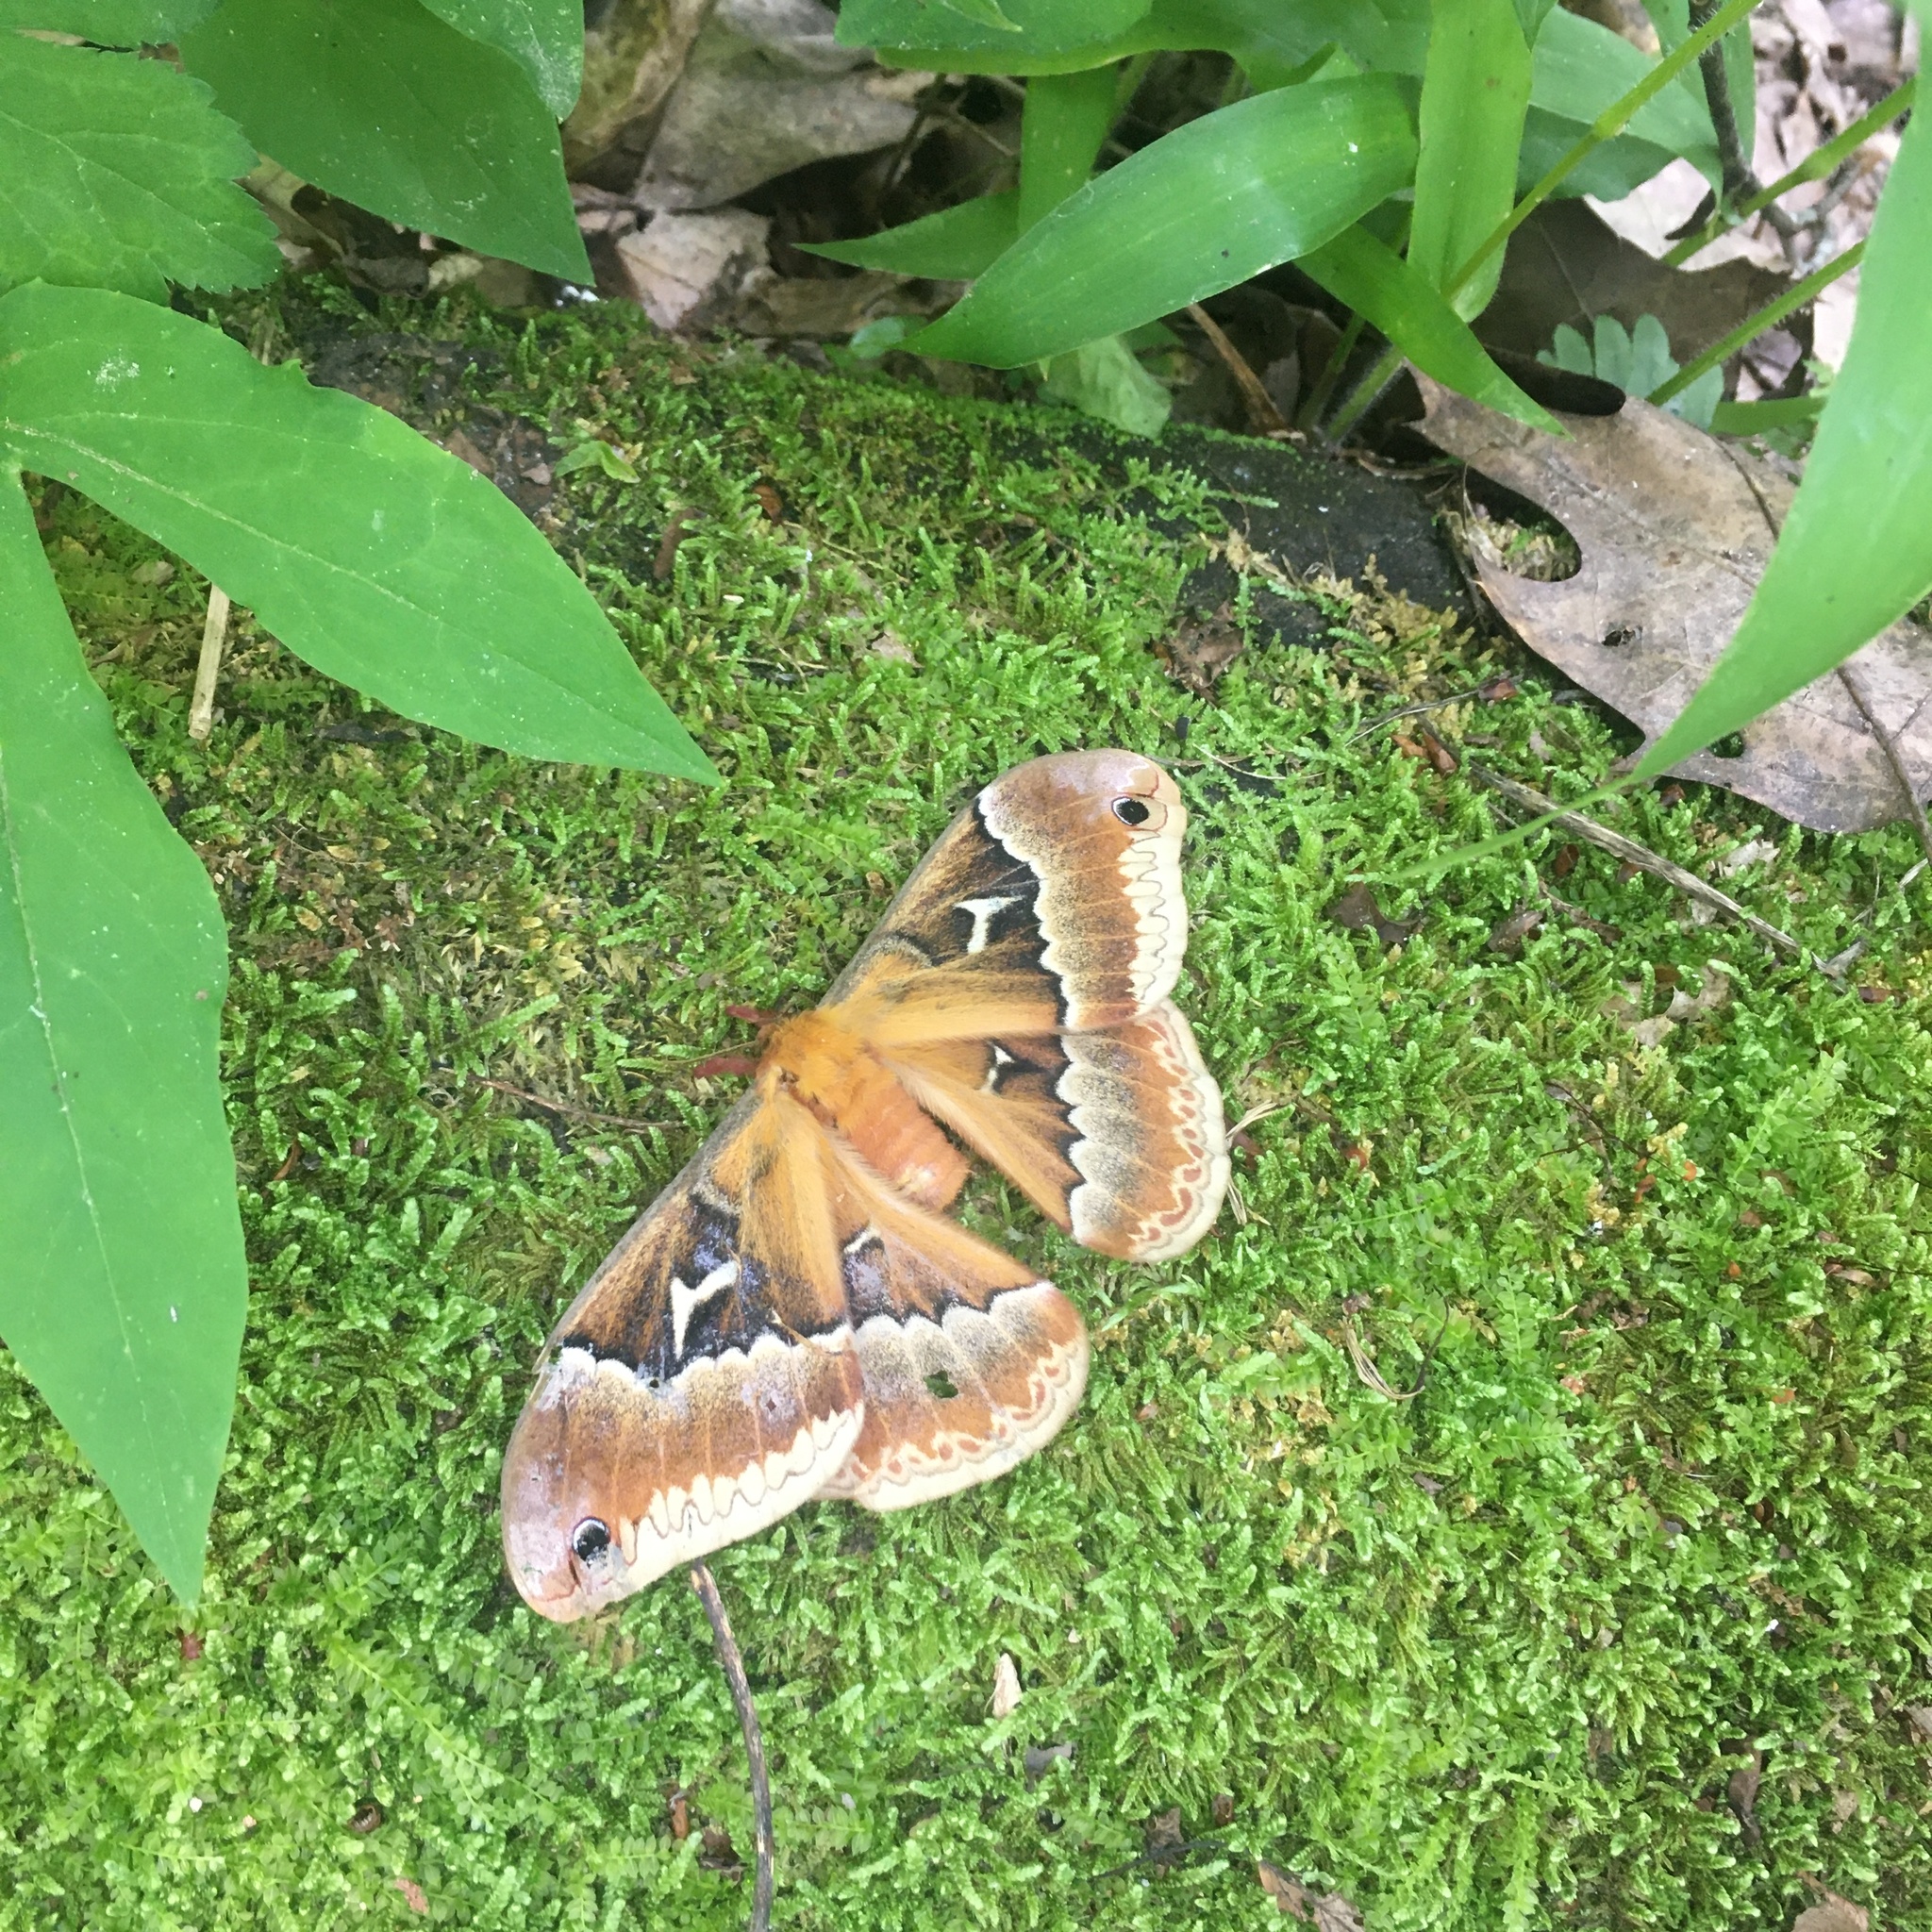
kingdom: Animalia
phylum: Arthropoda
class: Insecta
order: Lepidoptera
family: Saturniidae
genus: Callosamia
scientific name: Callosamia angulifera
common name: Tulip tree silkmoth
